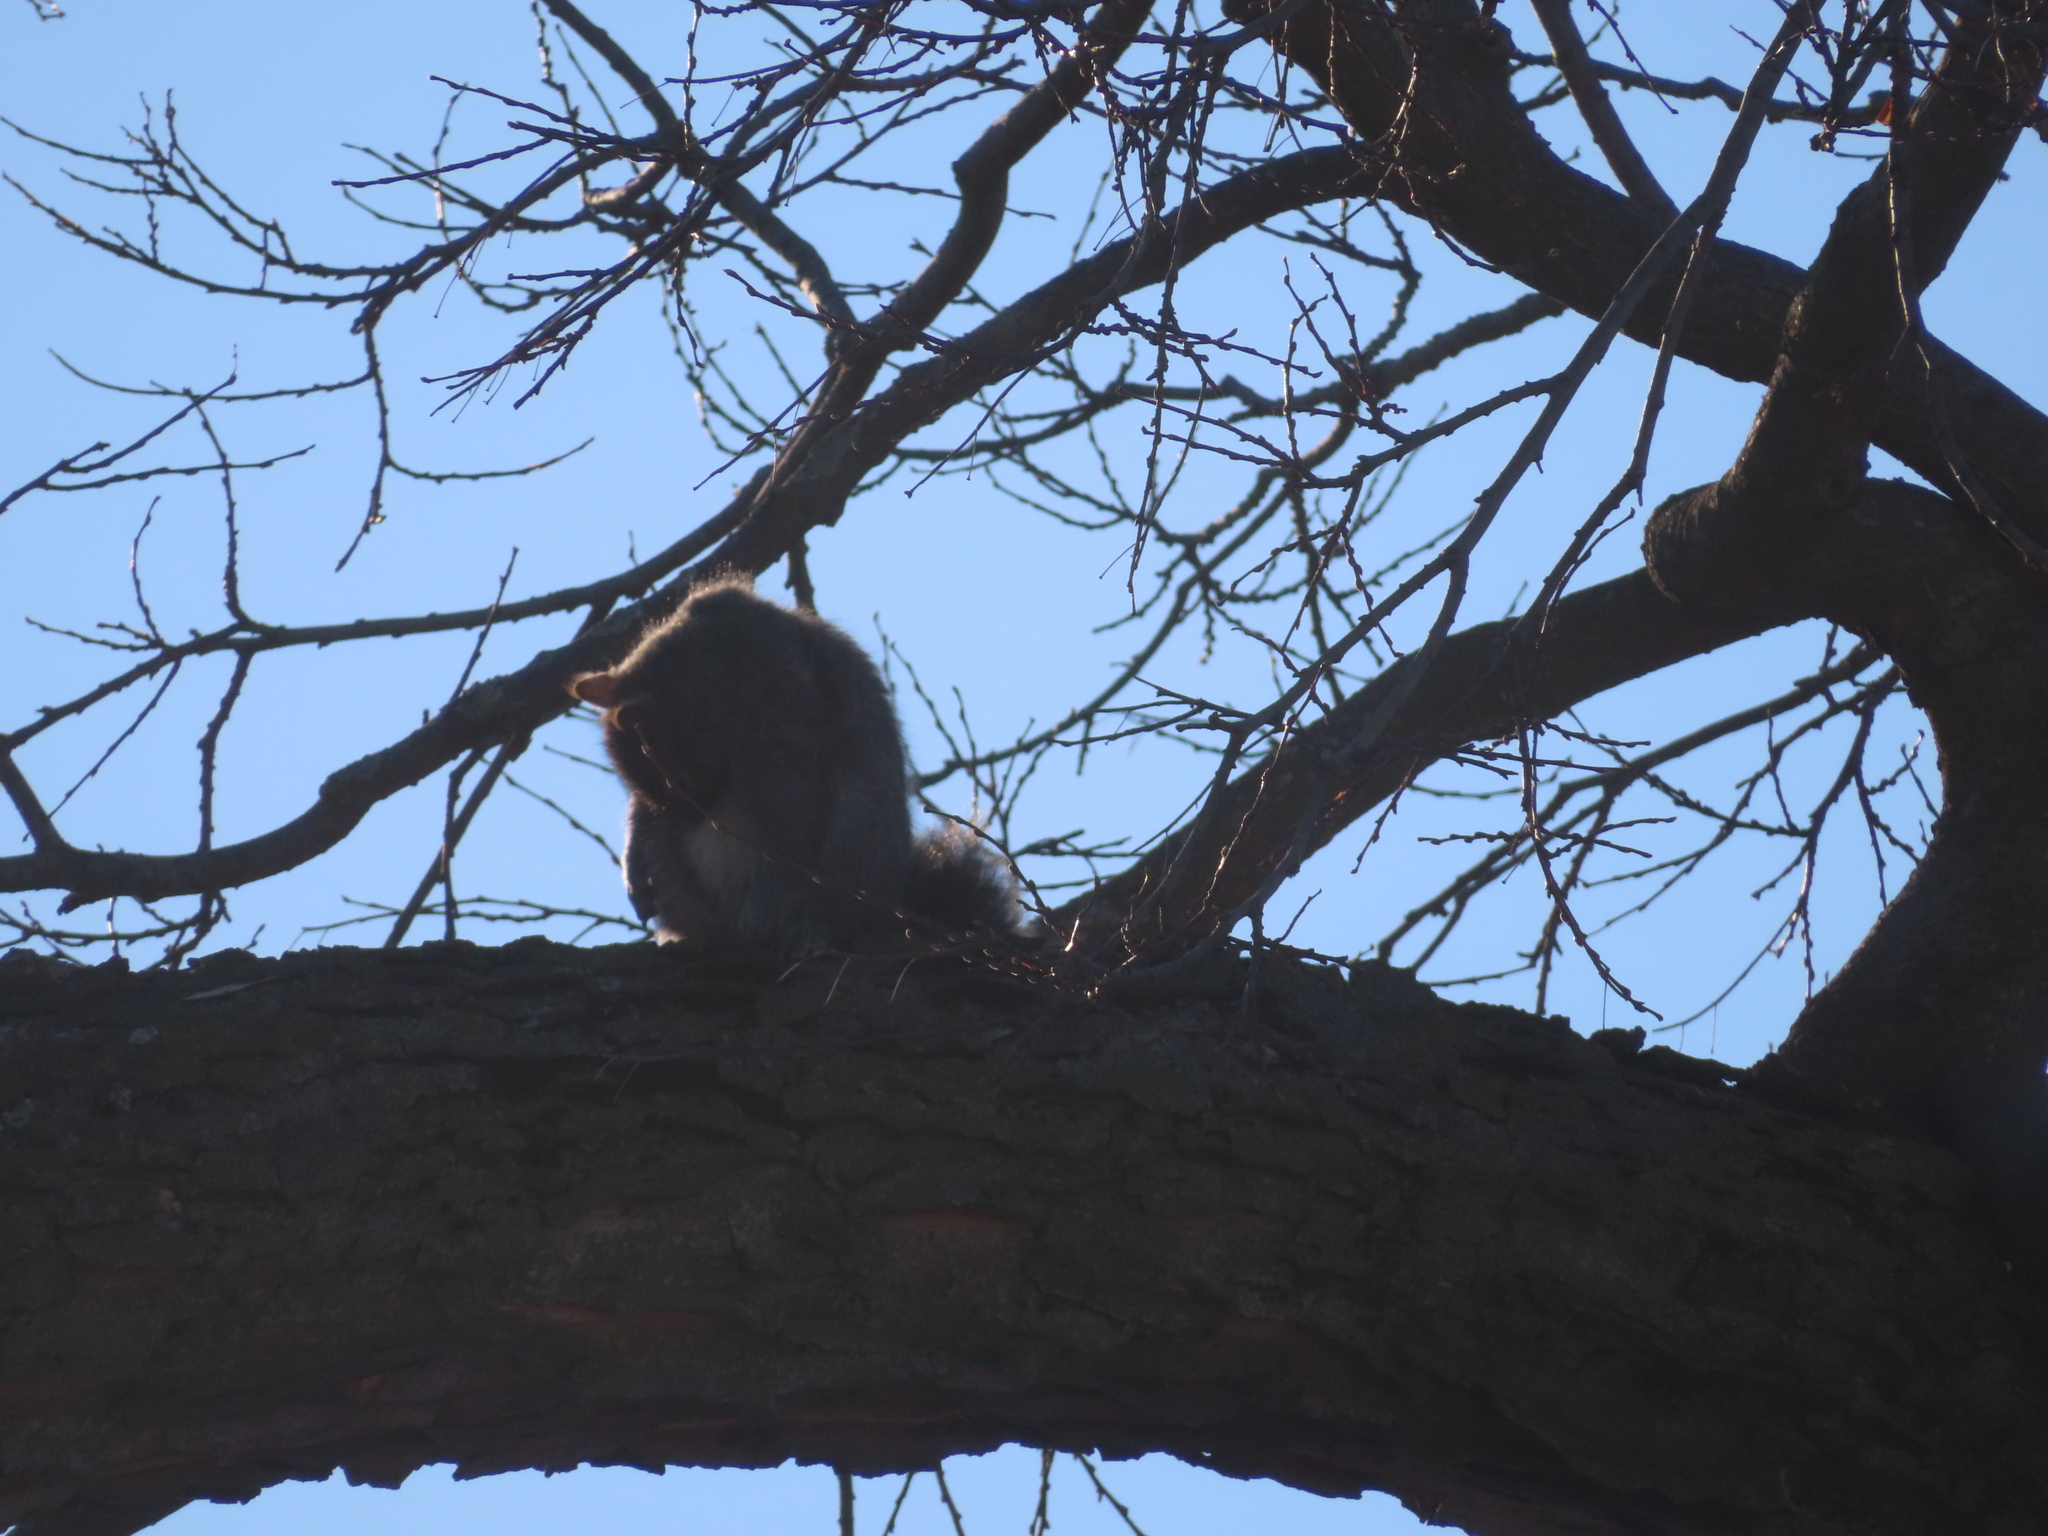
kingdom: Animalia
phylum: Chordata
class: Mammalia
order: Rodentia
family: Sciuridae
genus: Sciurus
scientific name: Sciurus carolinensis
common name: Eastern gray squirrel
